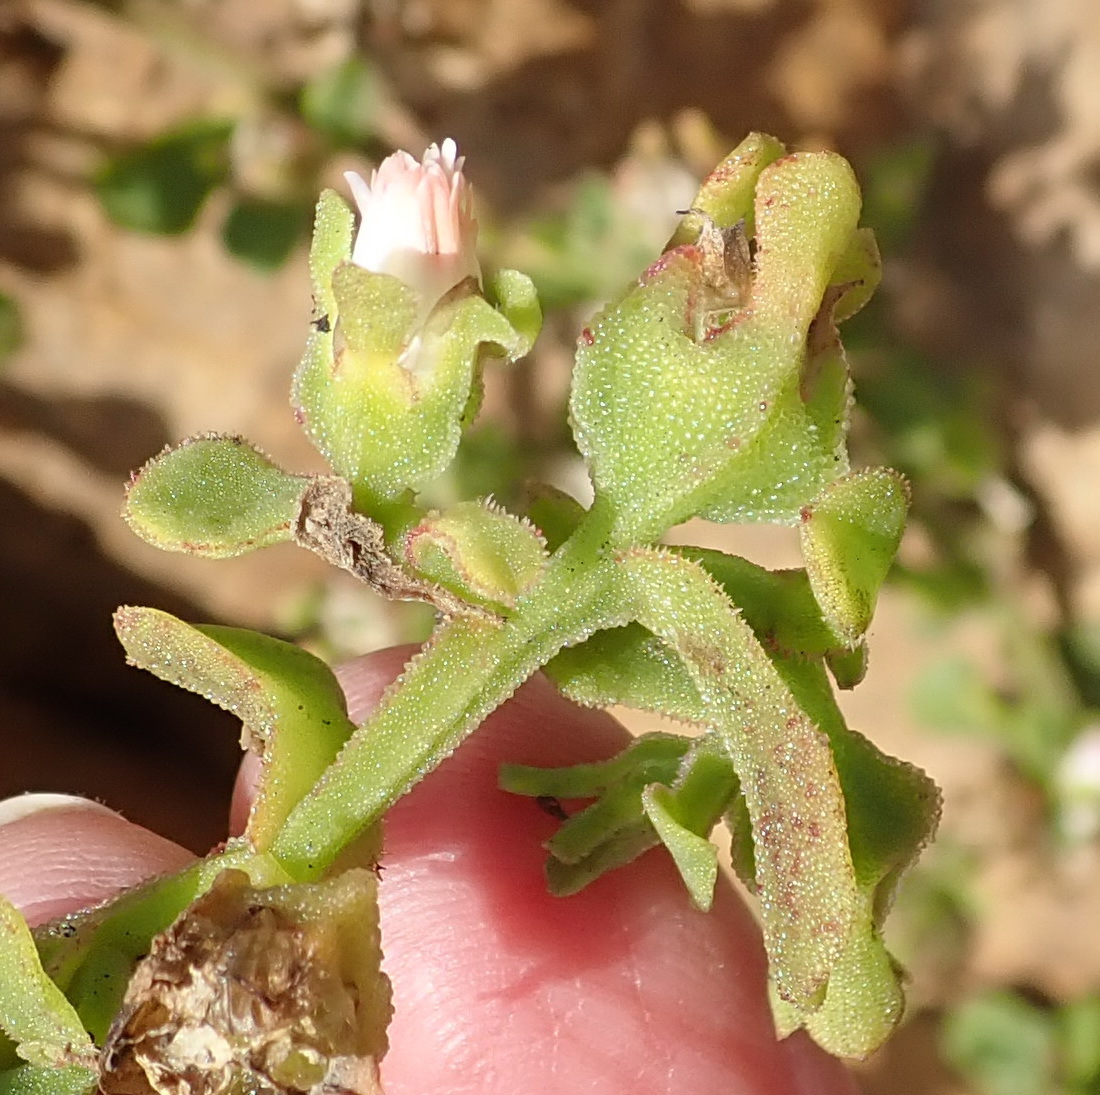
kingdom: Plantae
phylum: Tracheophyta
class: Magnoliopsida
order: Caryophyllales
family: Aizoaceae
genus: Mesembryanthemum
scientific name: Mesembryanthemum aitonis
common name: Angled iceplant
